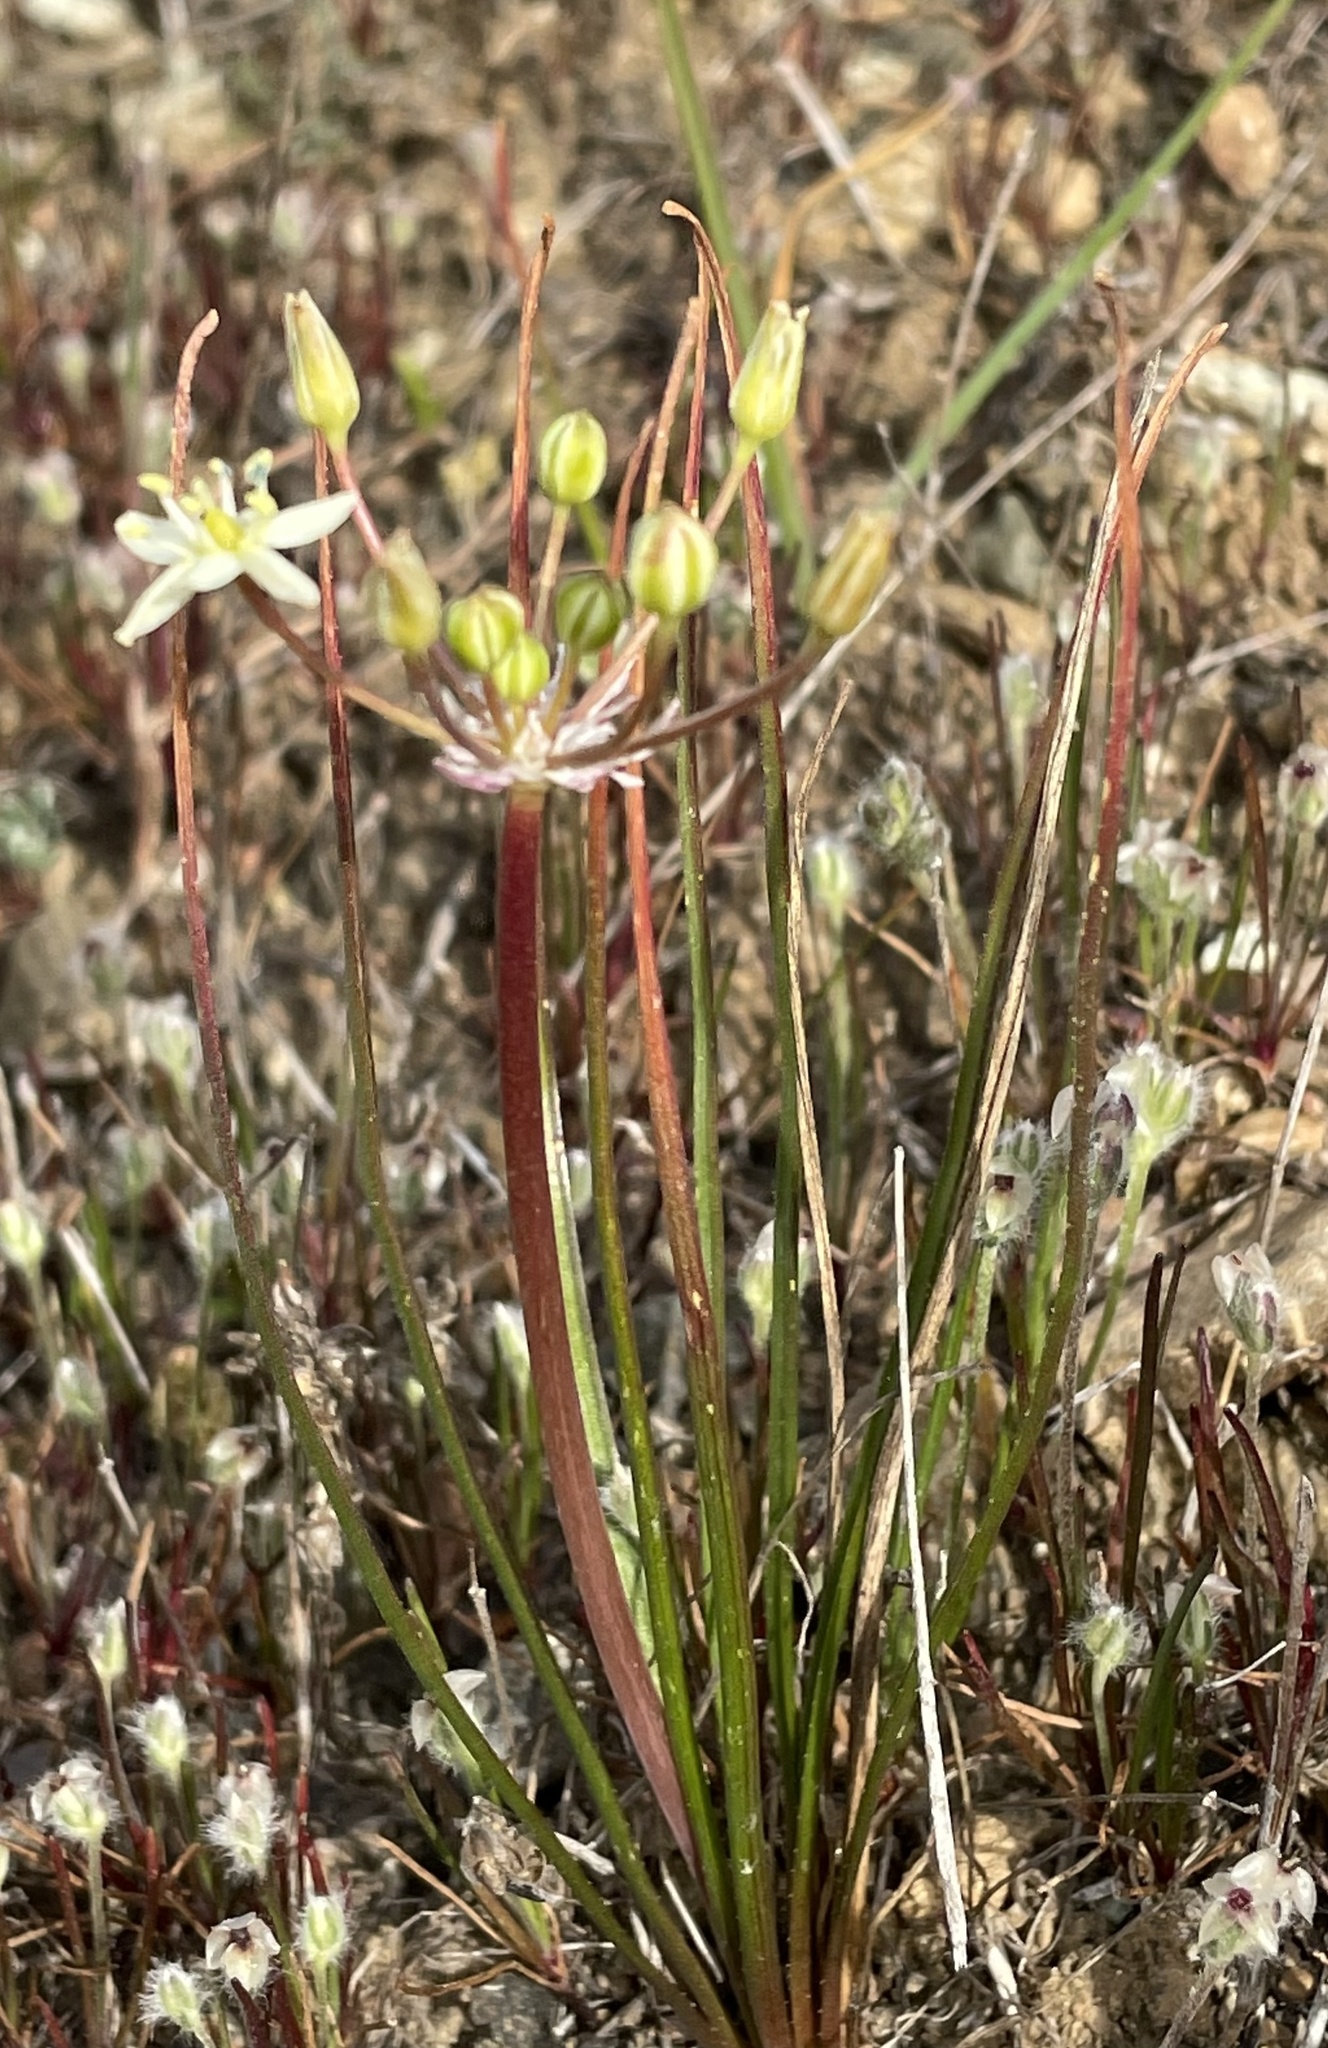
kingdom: Plantae
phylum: Tracheophyta
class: Liliopsida
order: Asparagales
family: Asparagaceae
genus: Muilla
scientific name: Muilla maritima
